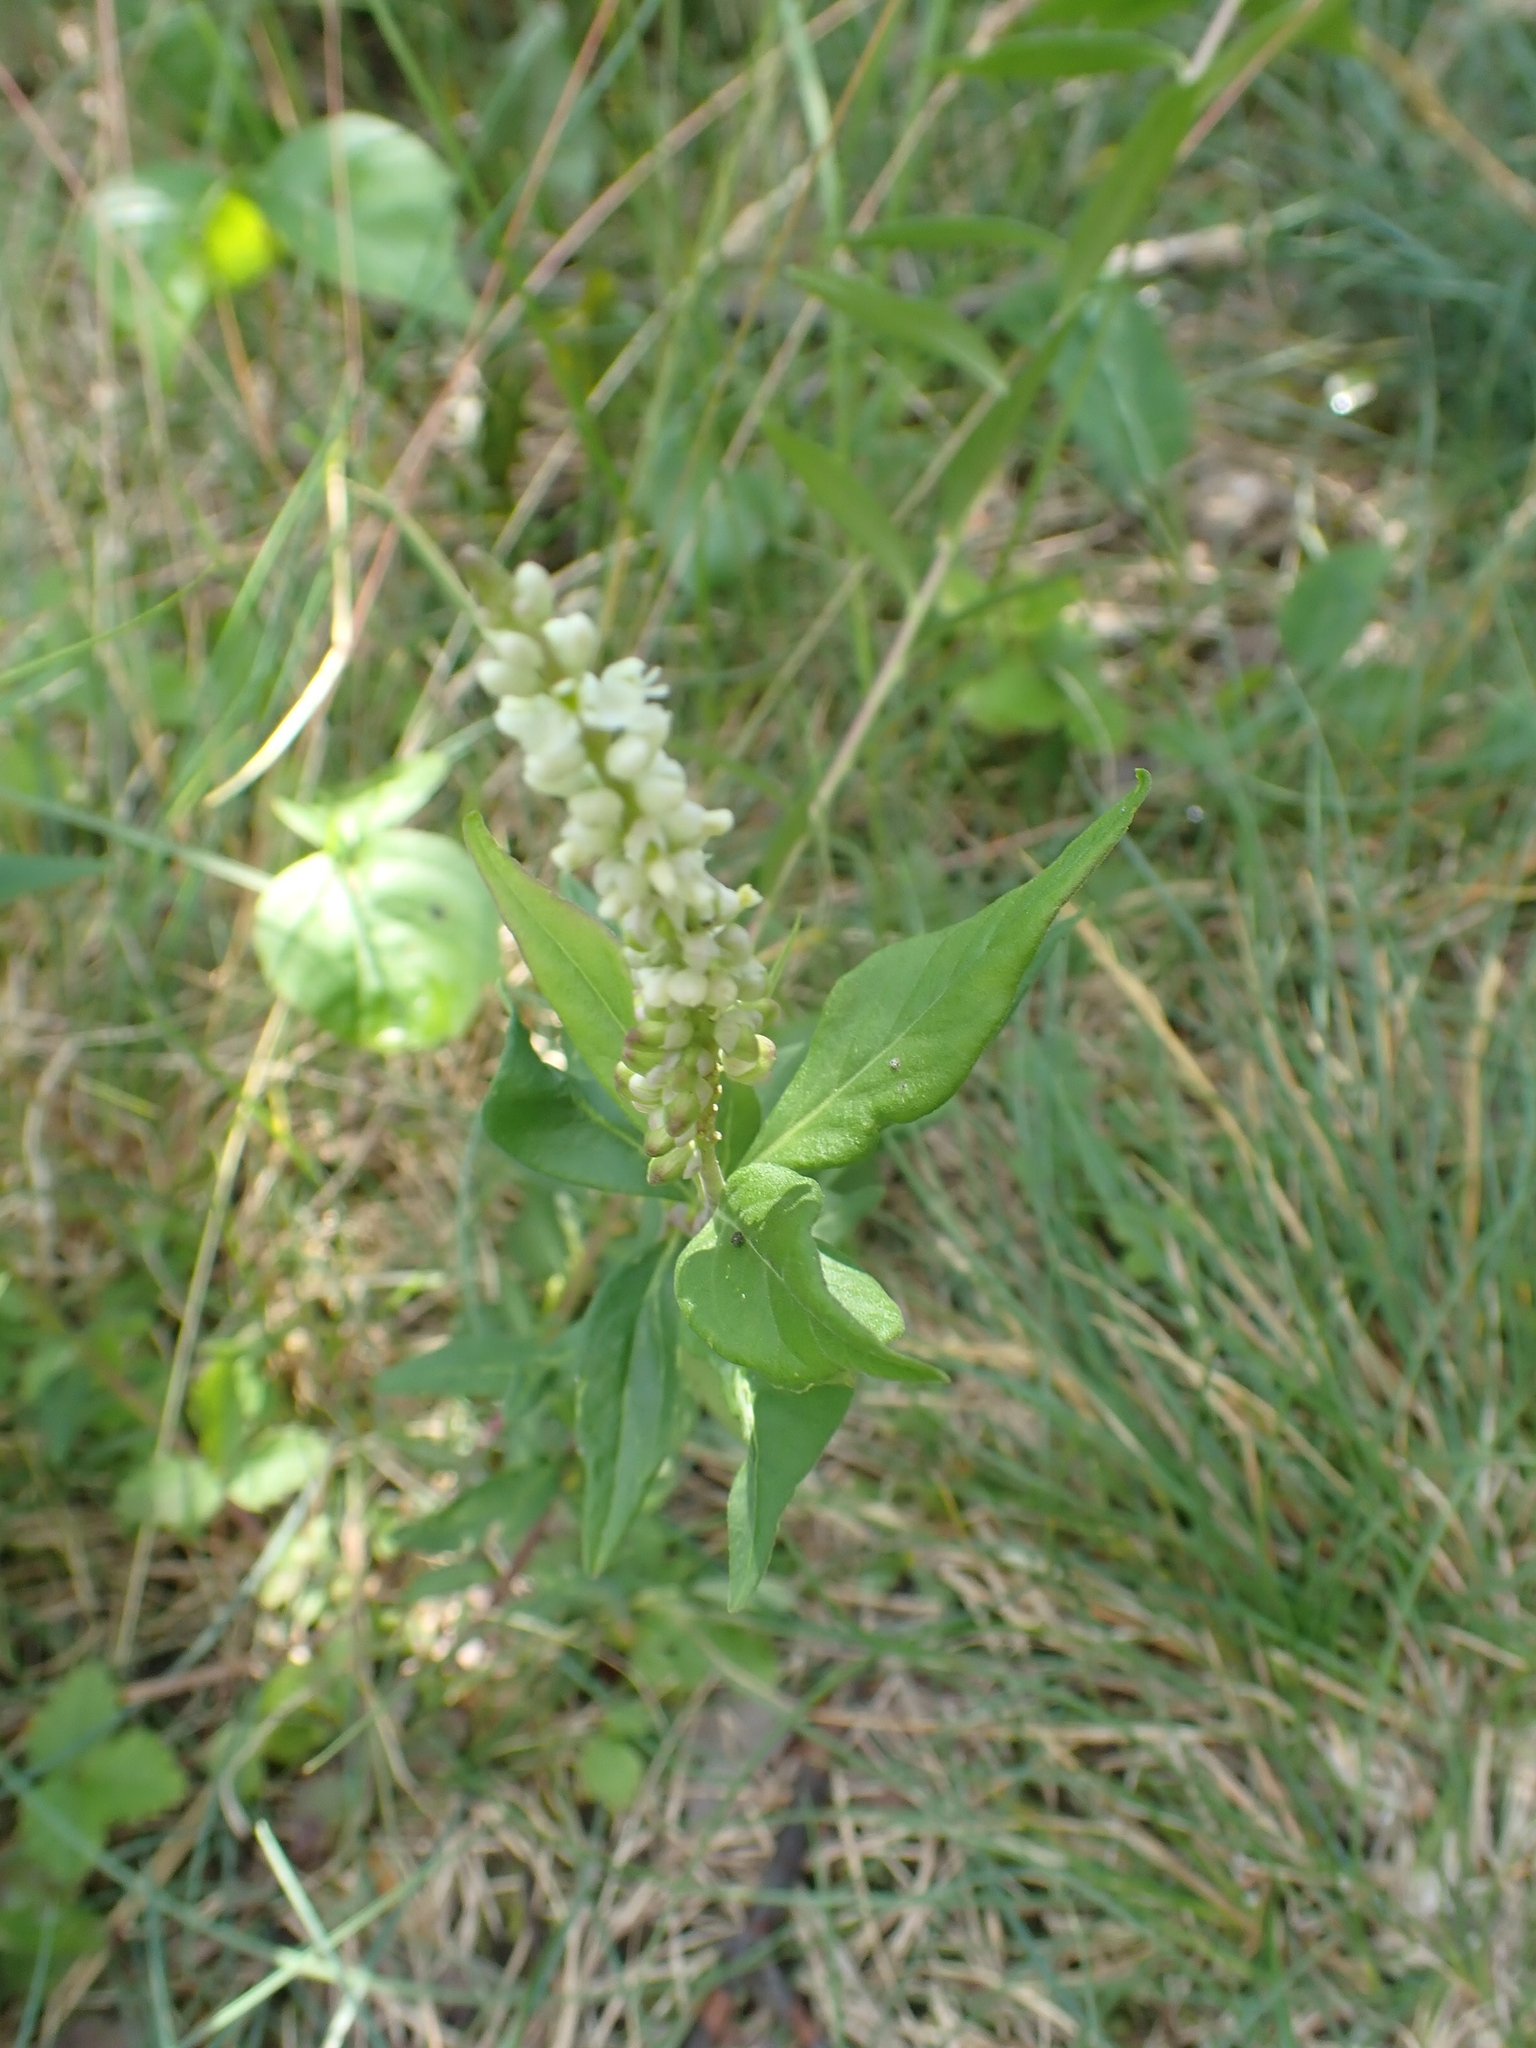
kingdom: Plantae
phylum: Tracheophyta
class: Magnoliopsida
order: Fabales
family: Polygalaceae
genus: Polygala
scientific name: Polygala senega
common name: Seneca snakeroot
